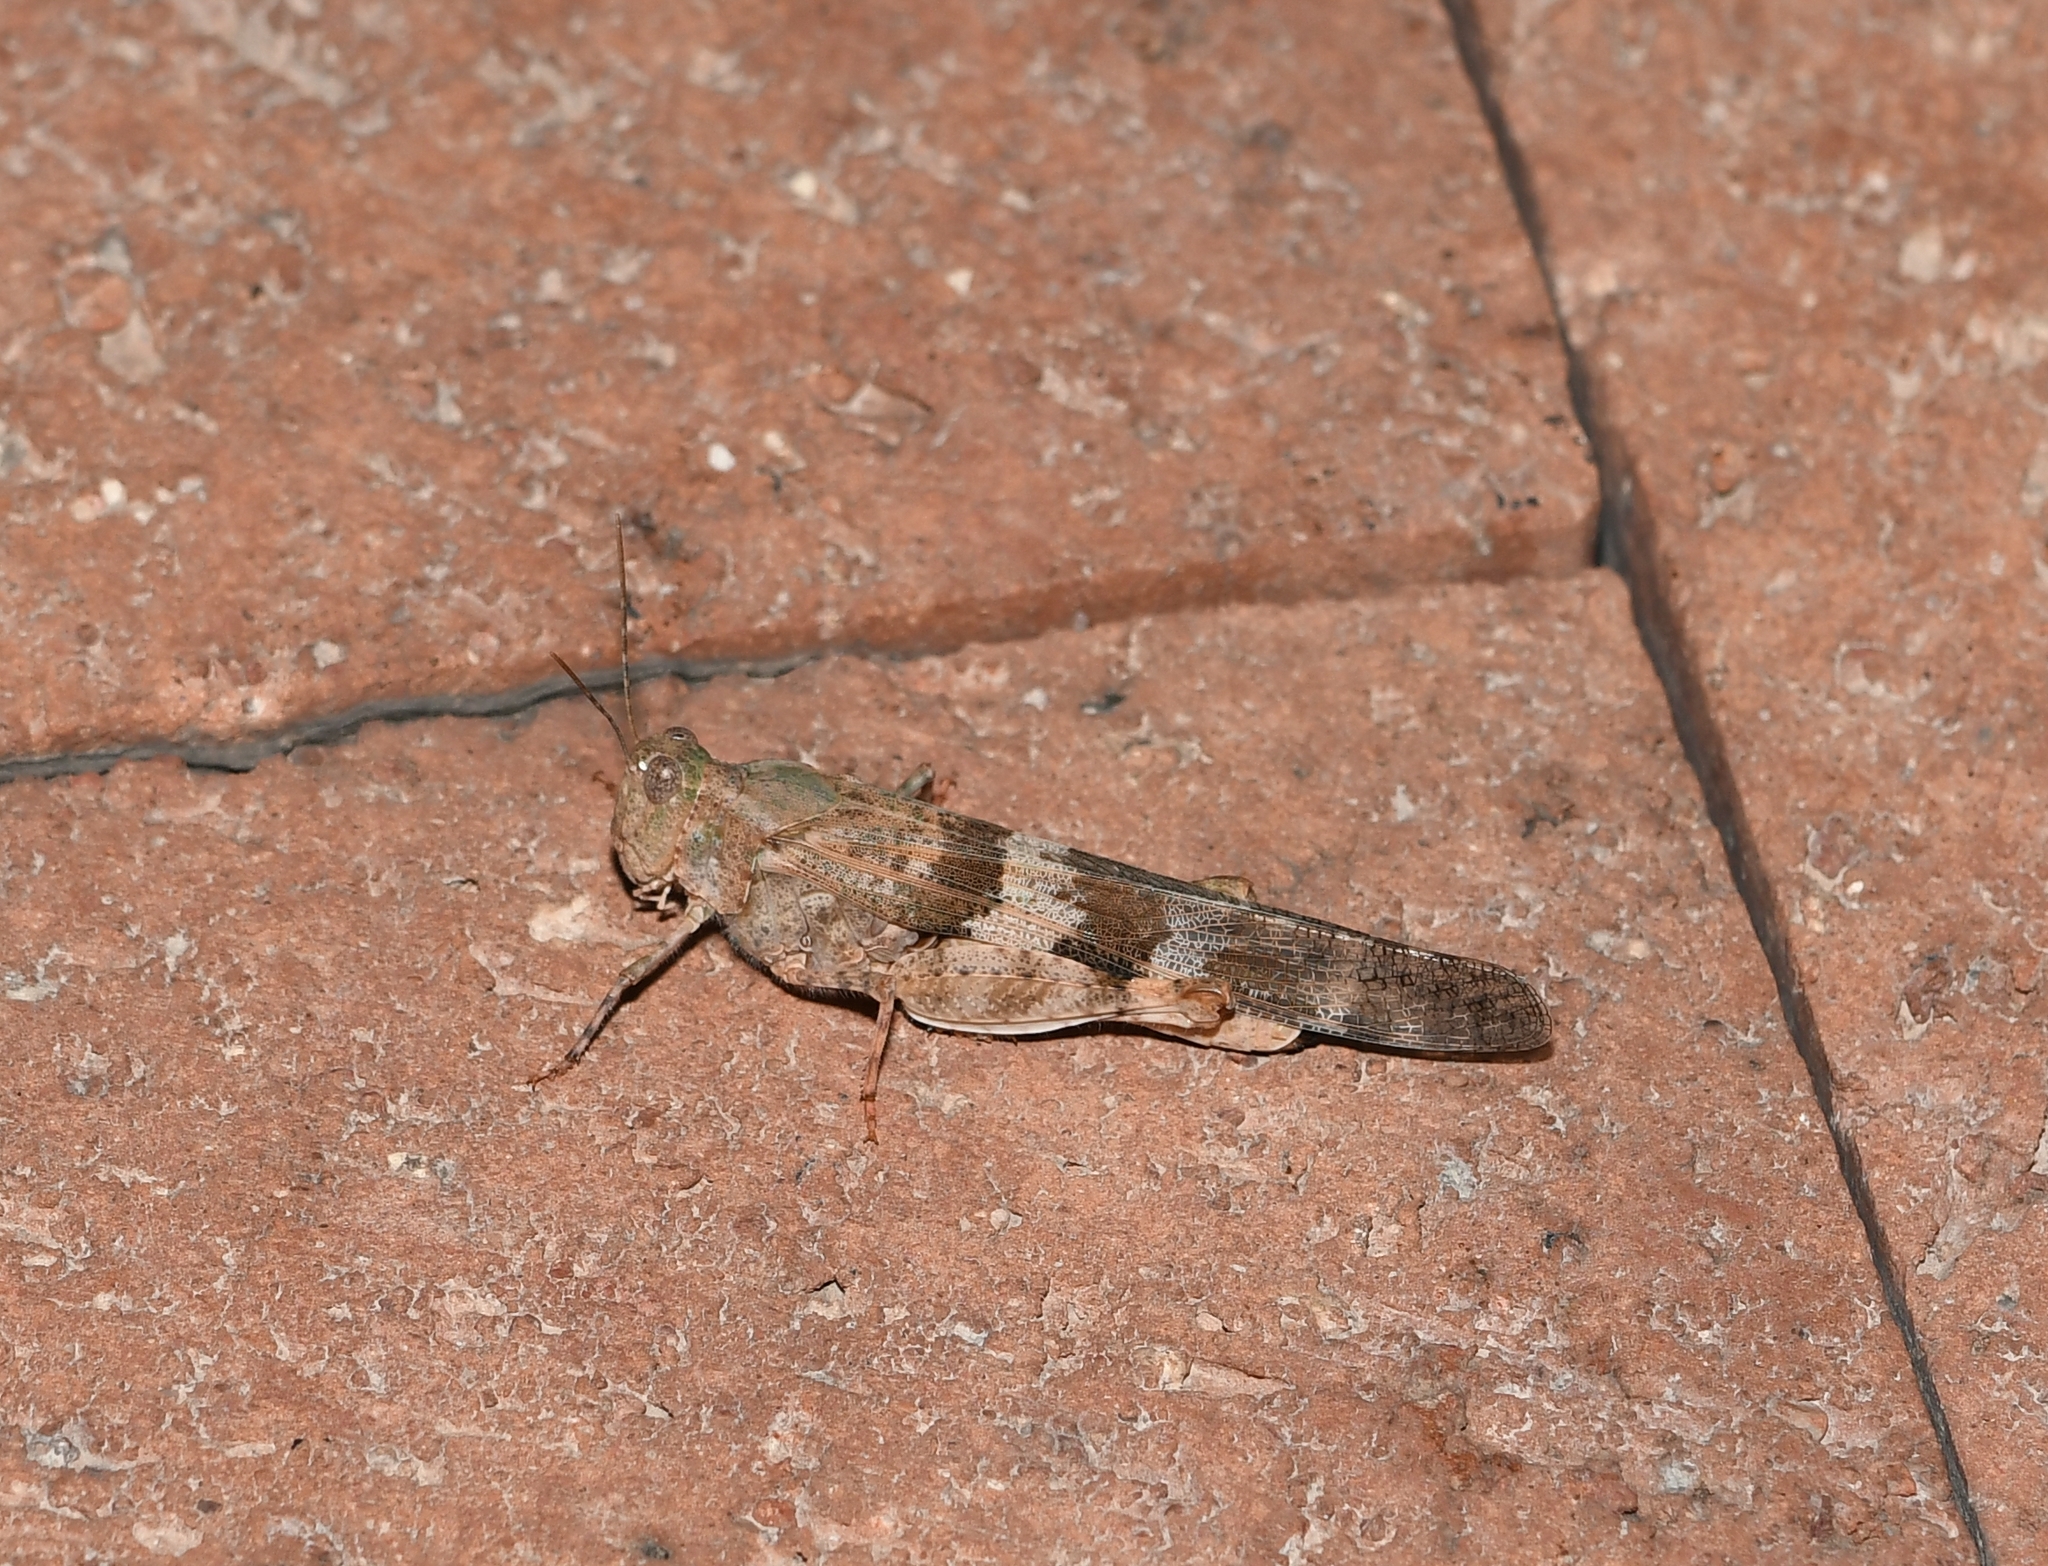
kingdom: Animalia
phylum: Arthropoda
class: Insecta
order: Orthoptera
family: Acrididae
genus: Trimerotropis
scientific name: Trimerotropis pallidipennis
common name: Pallid-winged grasshopper
